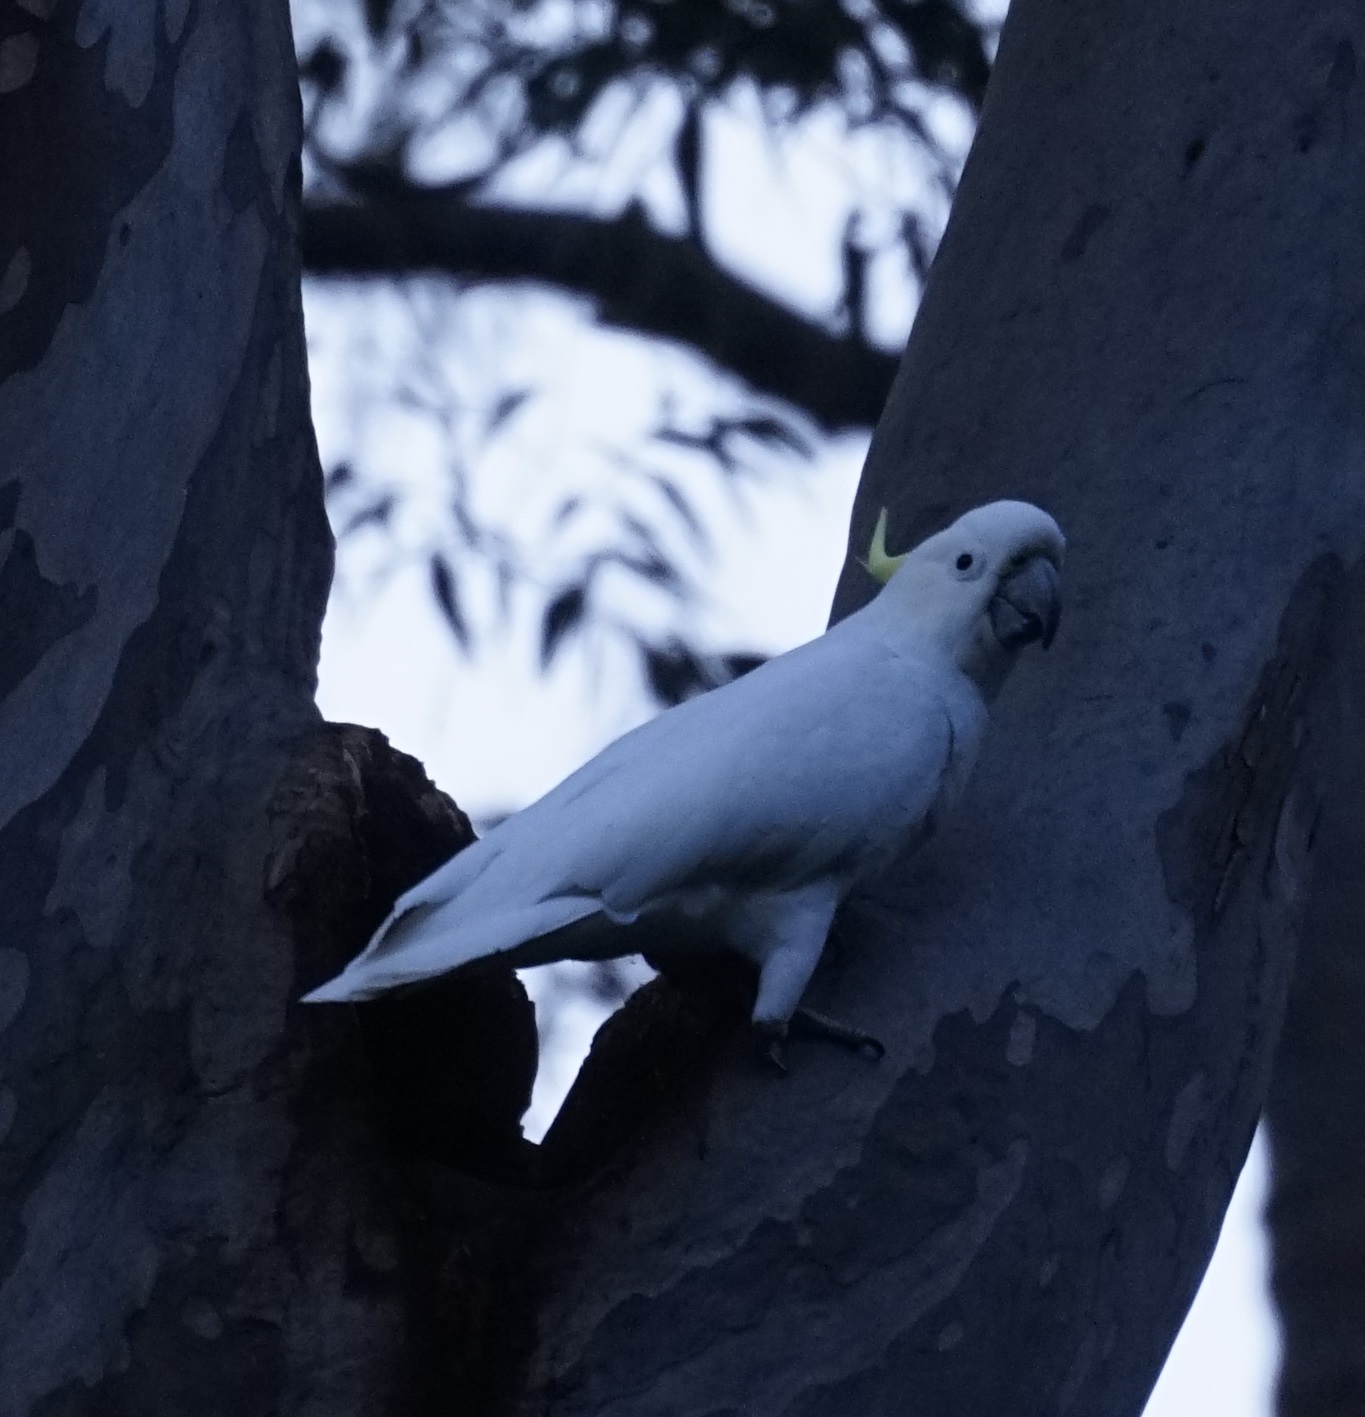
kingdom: Animalia
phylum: Chordata
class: Aves
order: Psittaciformes
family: Psittacidae
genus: Cacatua
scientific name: Cacatua galerita
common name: Sulphur-crested cockatoo
